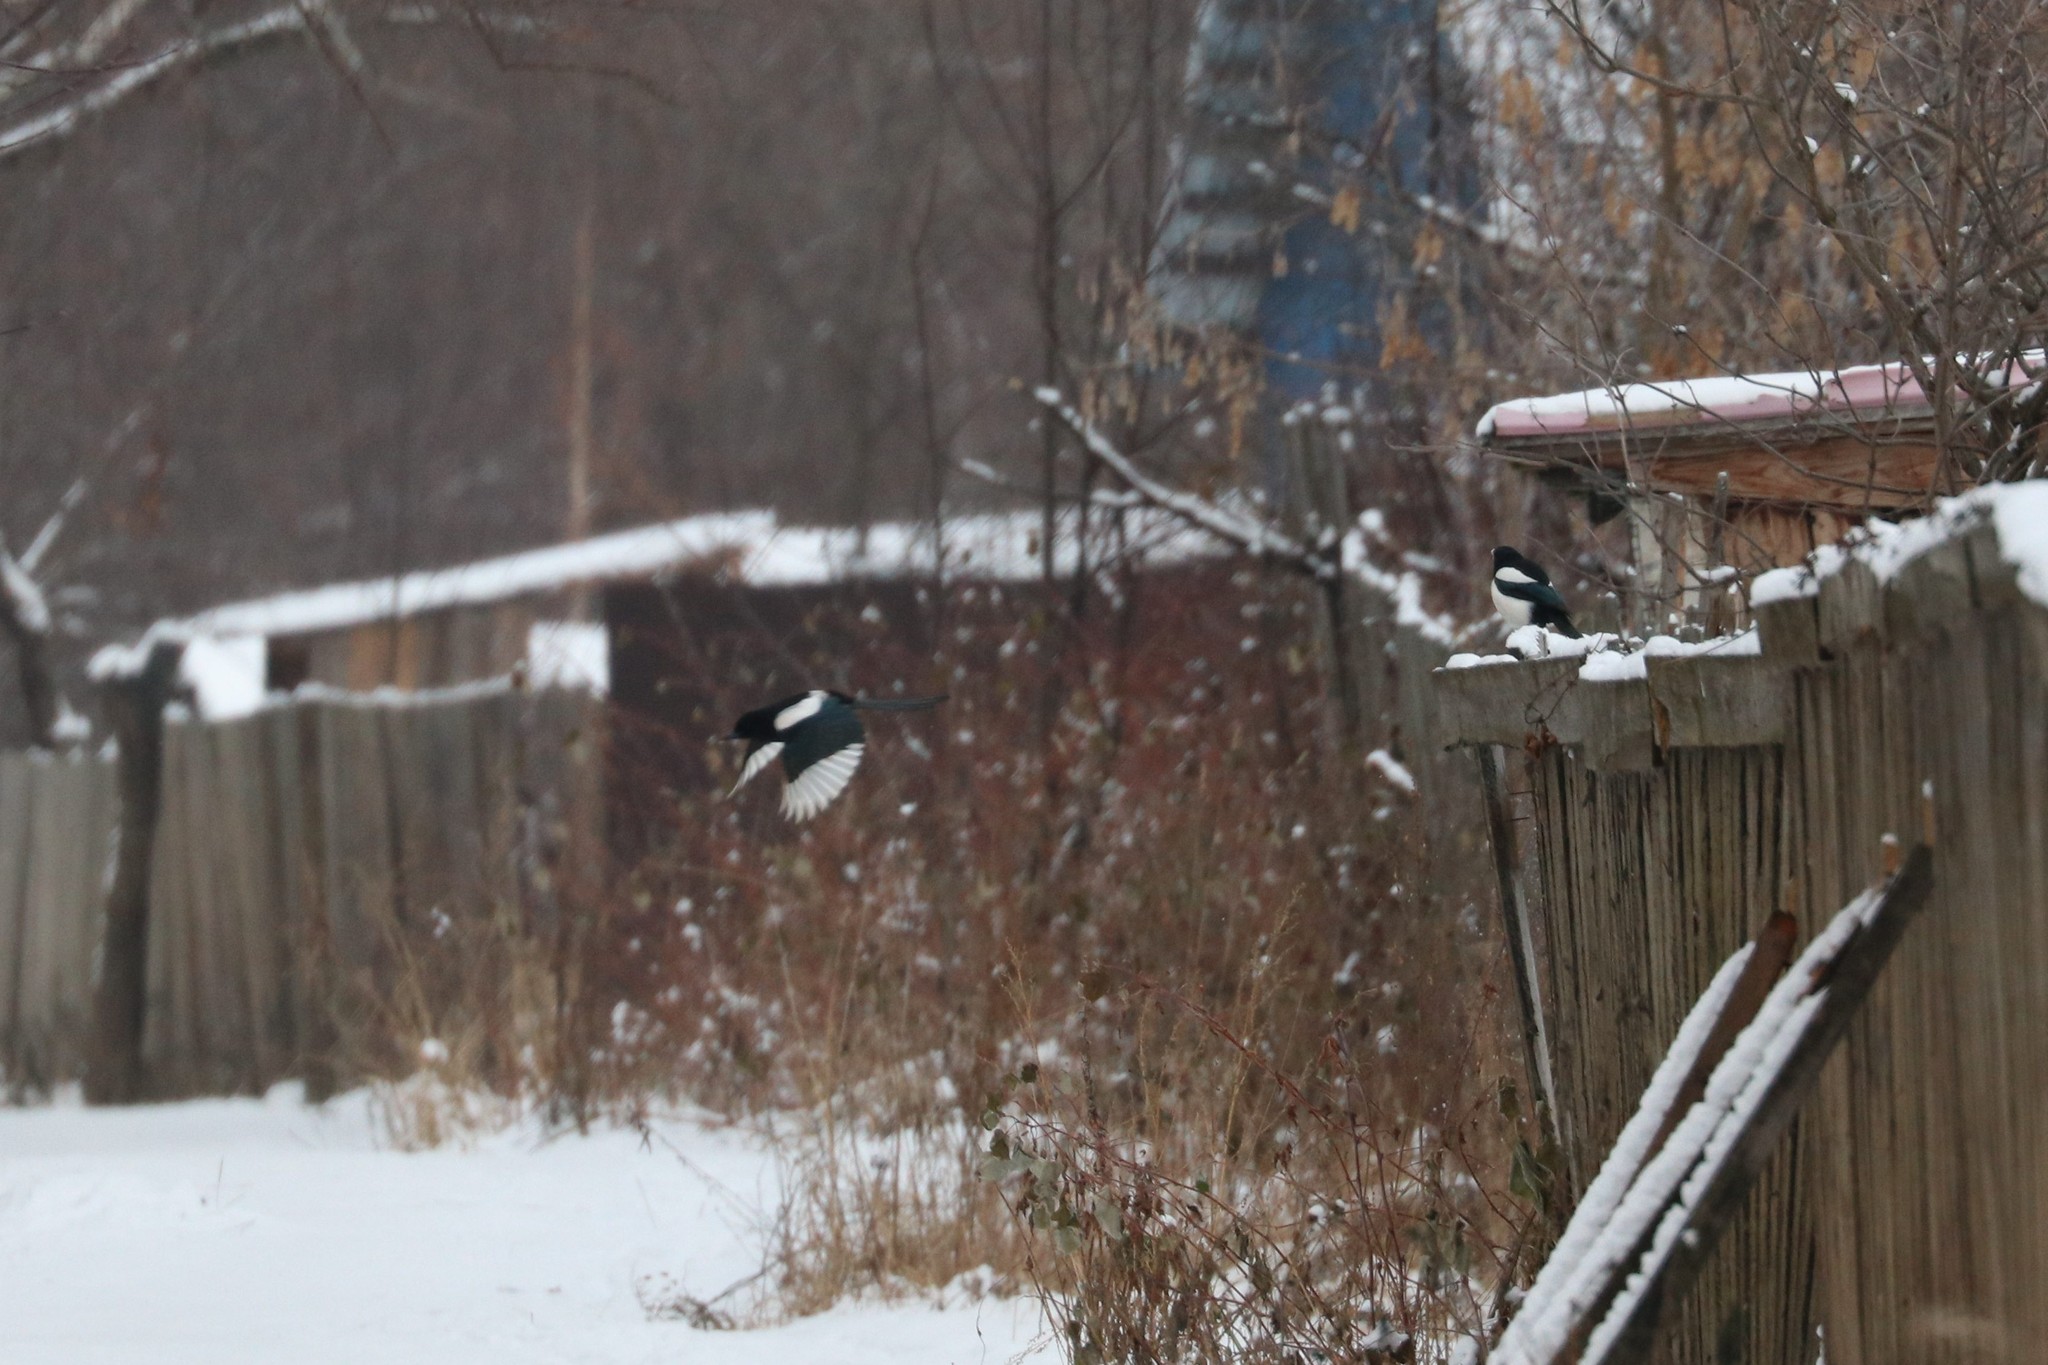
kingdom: Animalia
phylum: Chordata
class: Aves
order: Passeriformes
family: Corvidae
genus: Pica
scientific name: Pica pica
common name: Eurasian magpie
